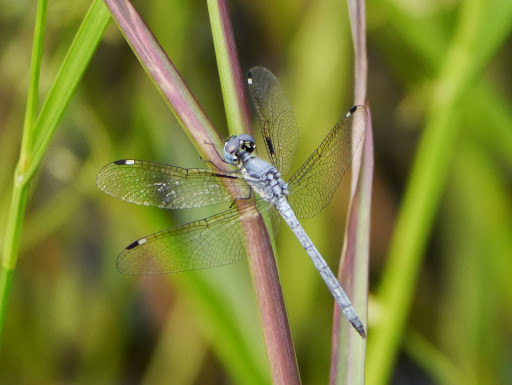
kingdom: Animalia
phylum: Arthropoda
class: Insecta
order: Odonata
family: Libellulidae
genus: Hemistigma
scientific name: Hemistigma albipunctum
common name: African pied-spot
